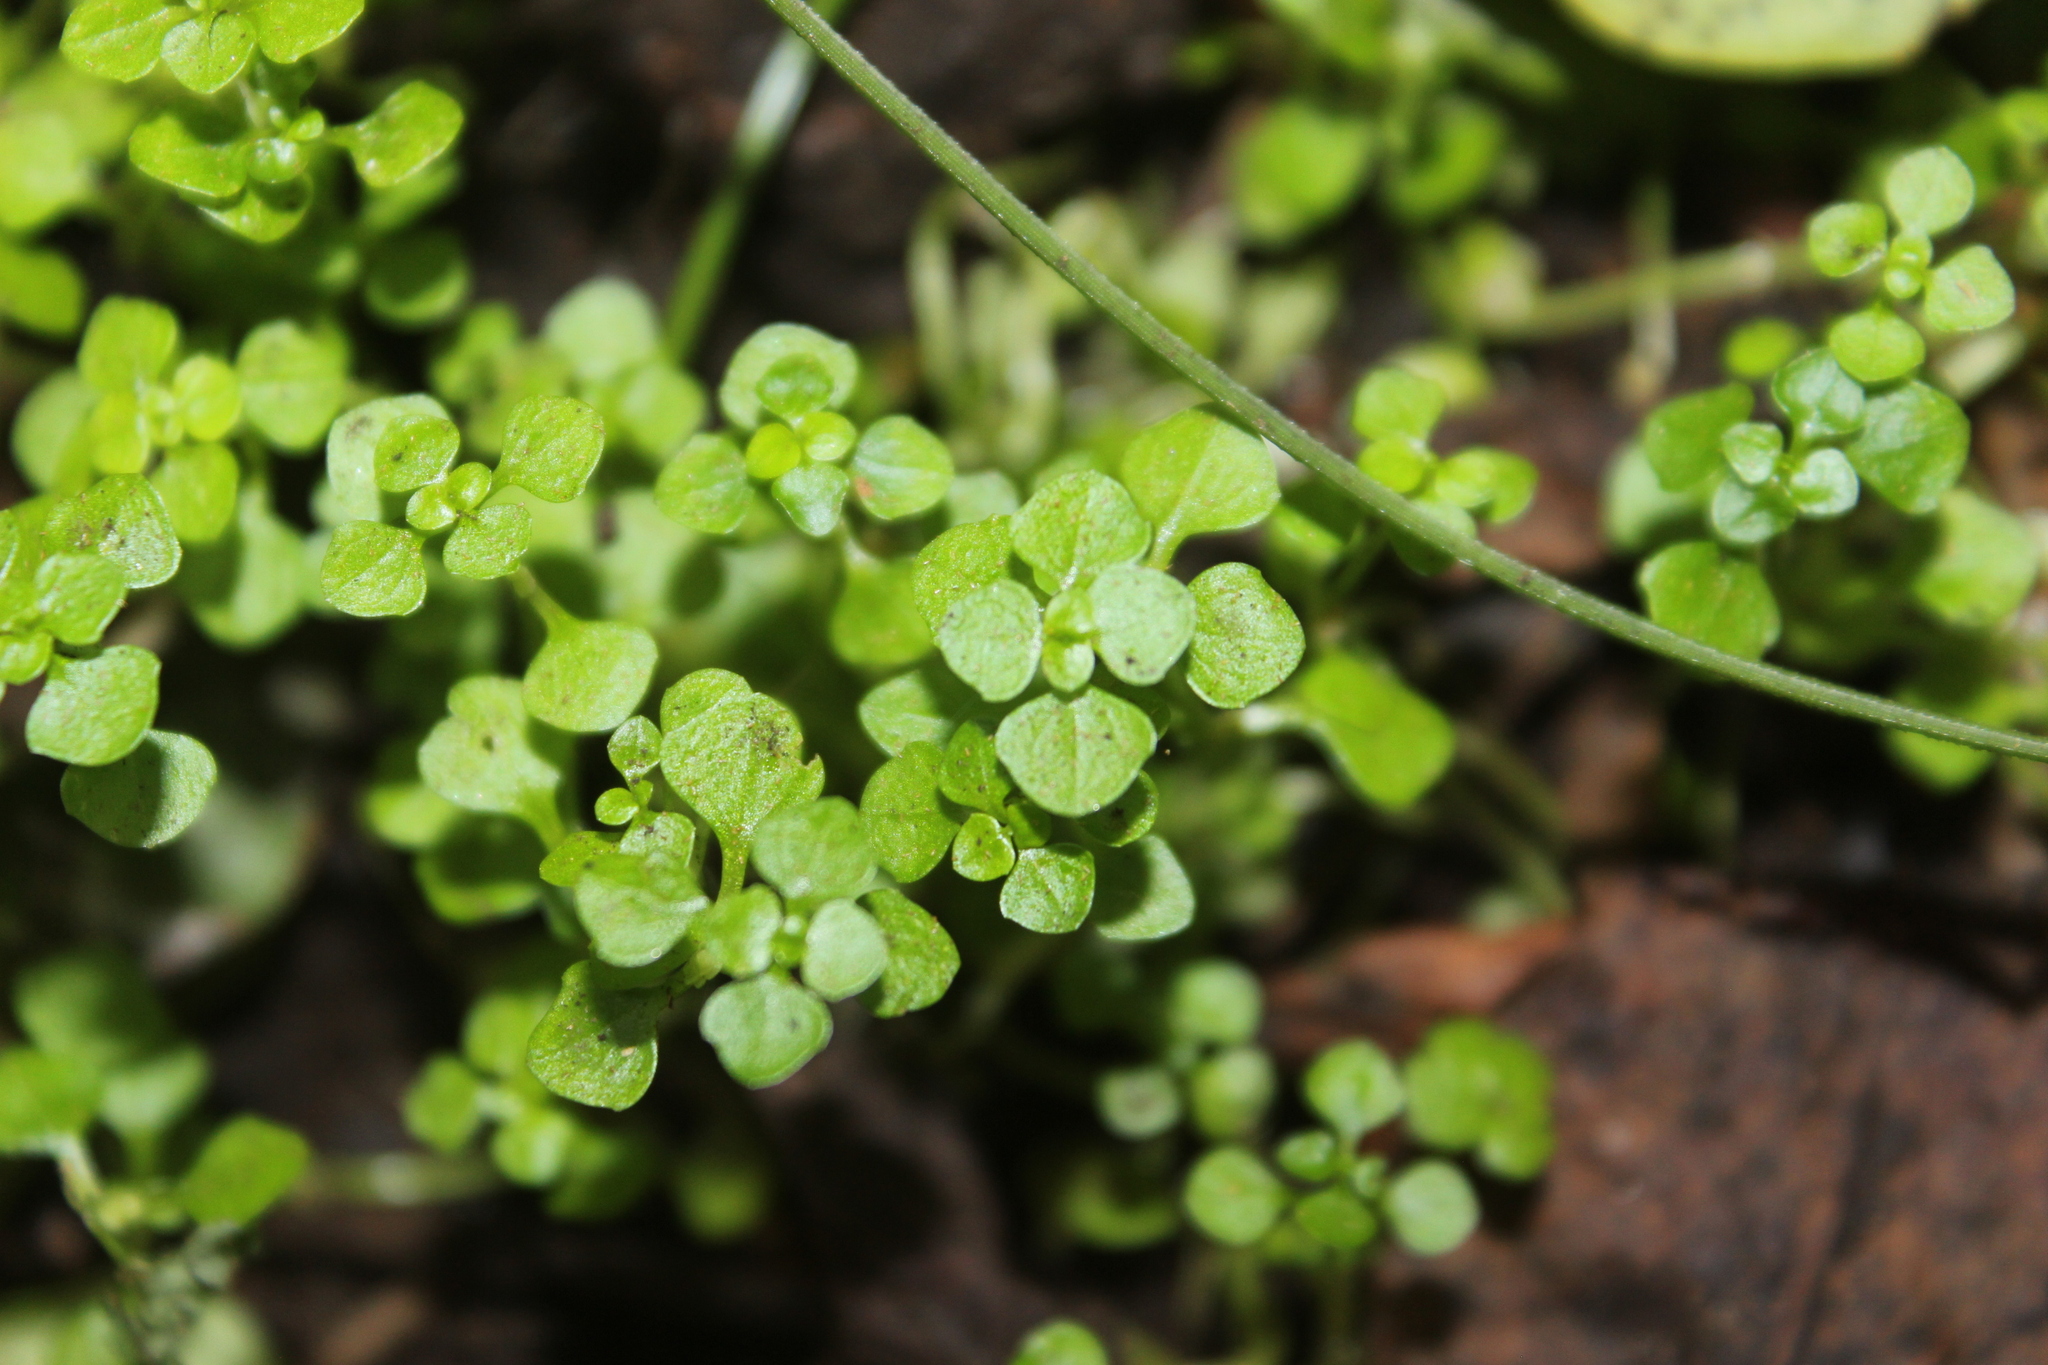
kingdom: Plantae
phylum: Tracheophyta
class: Magnoliopsida
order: Lamiales
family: Plantaginaceae
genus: Callitriche
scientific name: Callitriche muelleri
